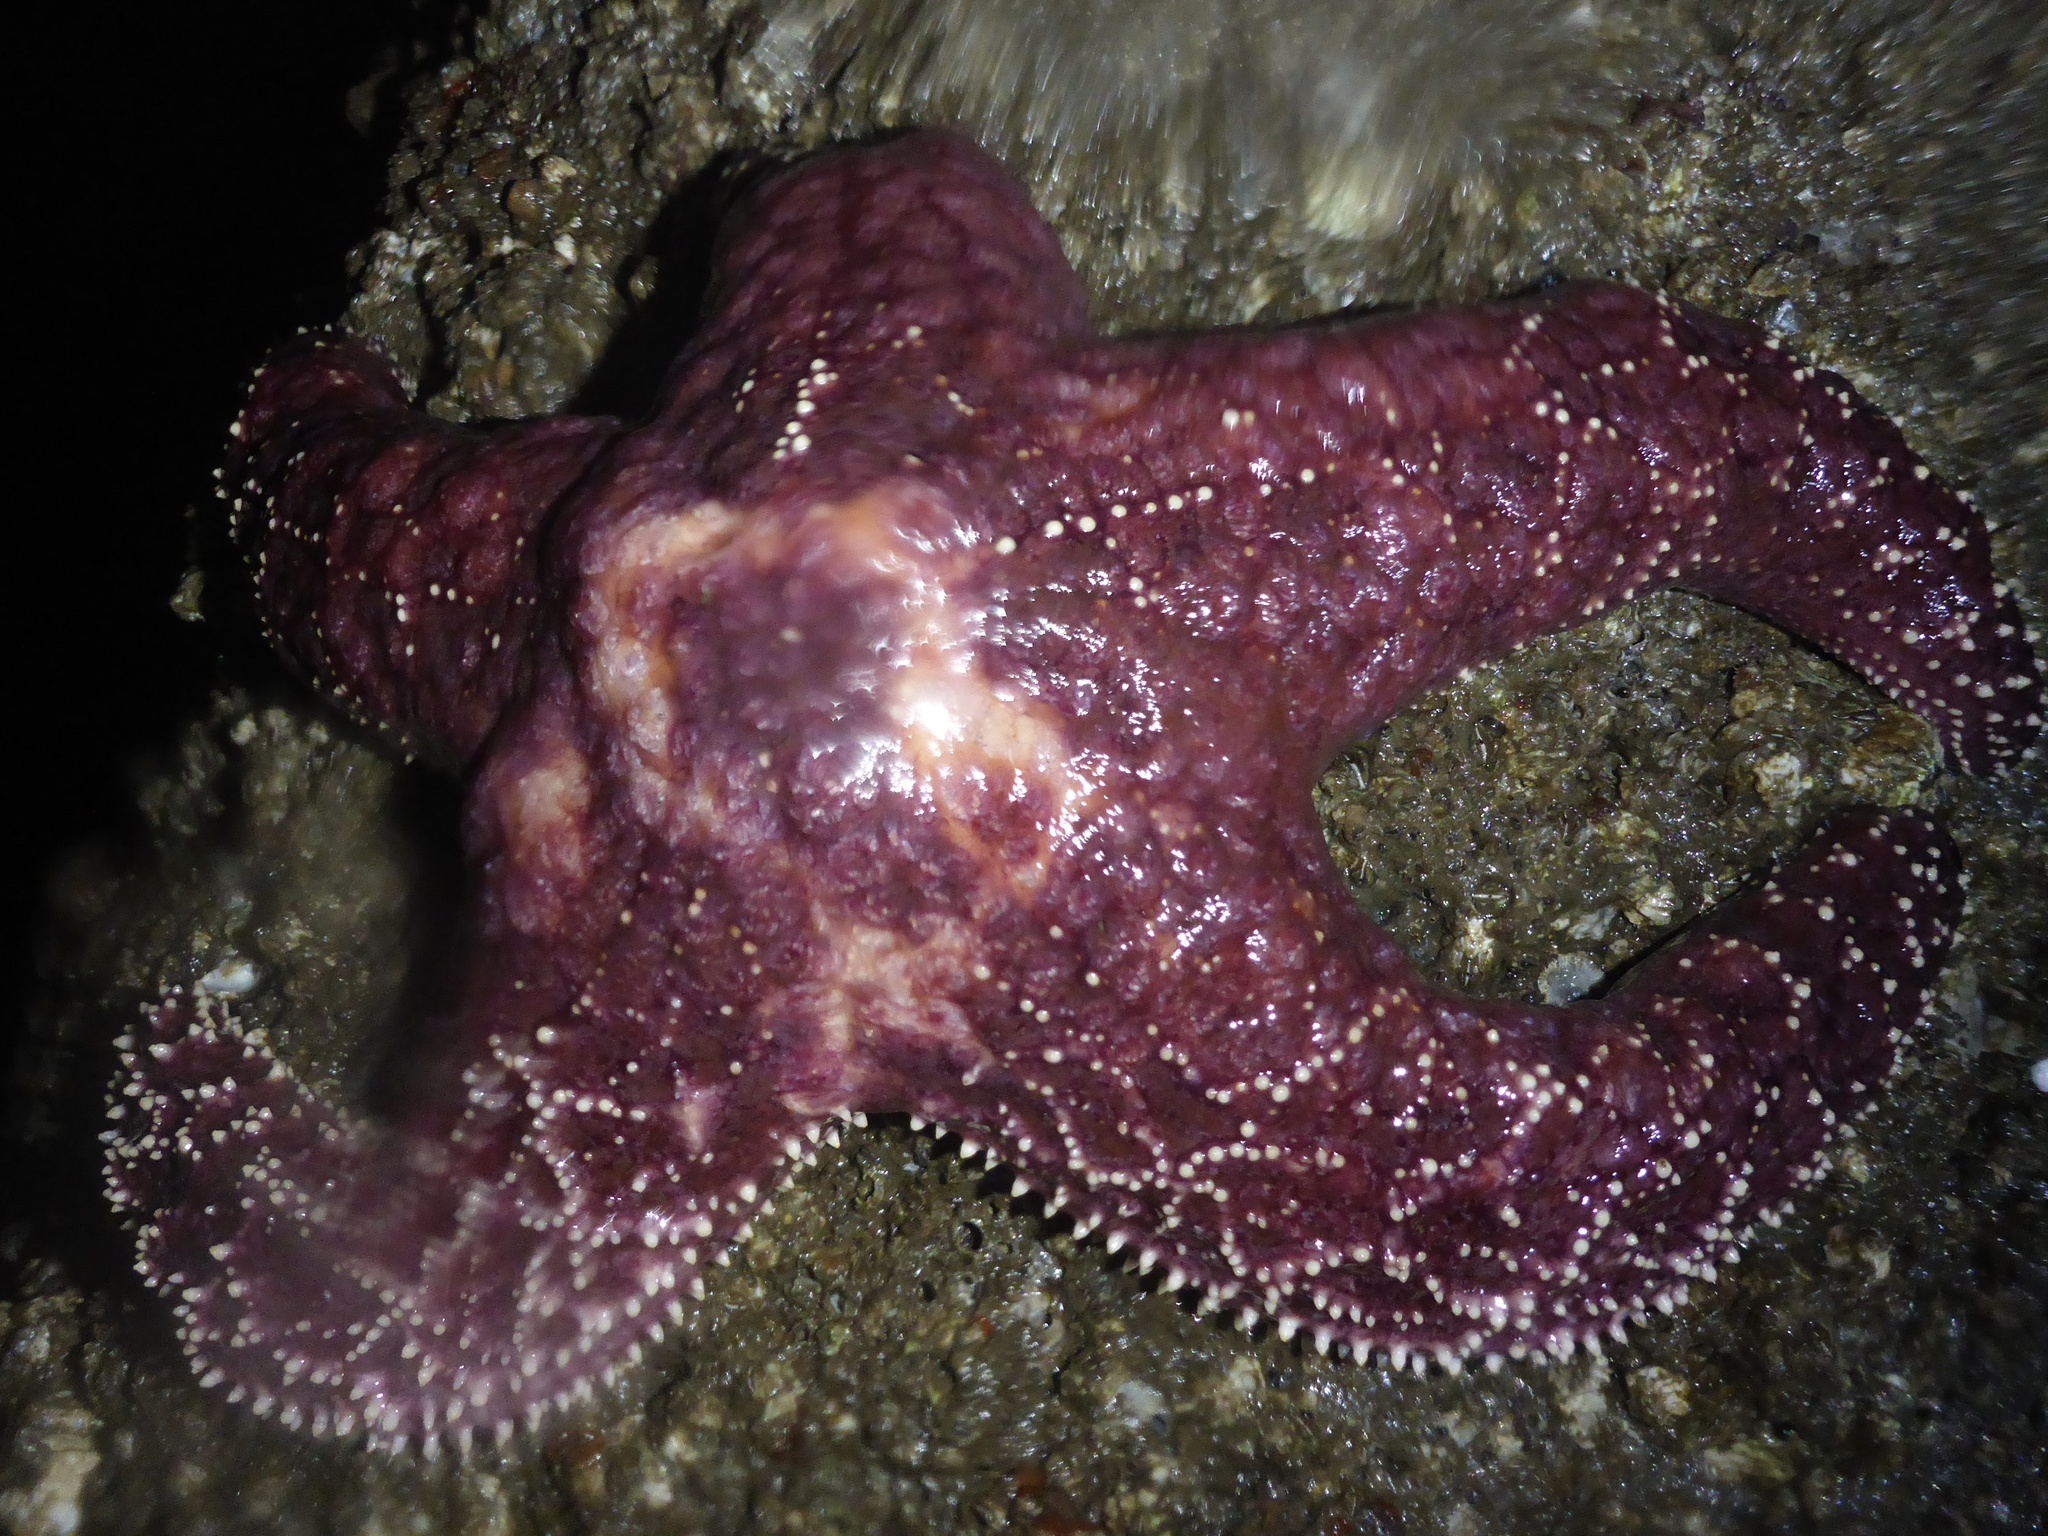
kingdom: Animalia
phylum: Echinodermata
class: Asteroidea
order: Forcipulatida
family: Asteriidae
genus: Pisaster
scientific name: Pisaster ochraceus
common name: Ochre stars
